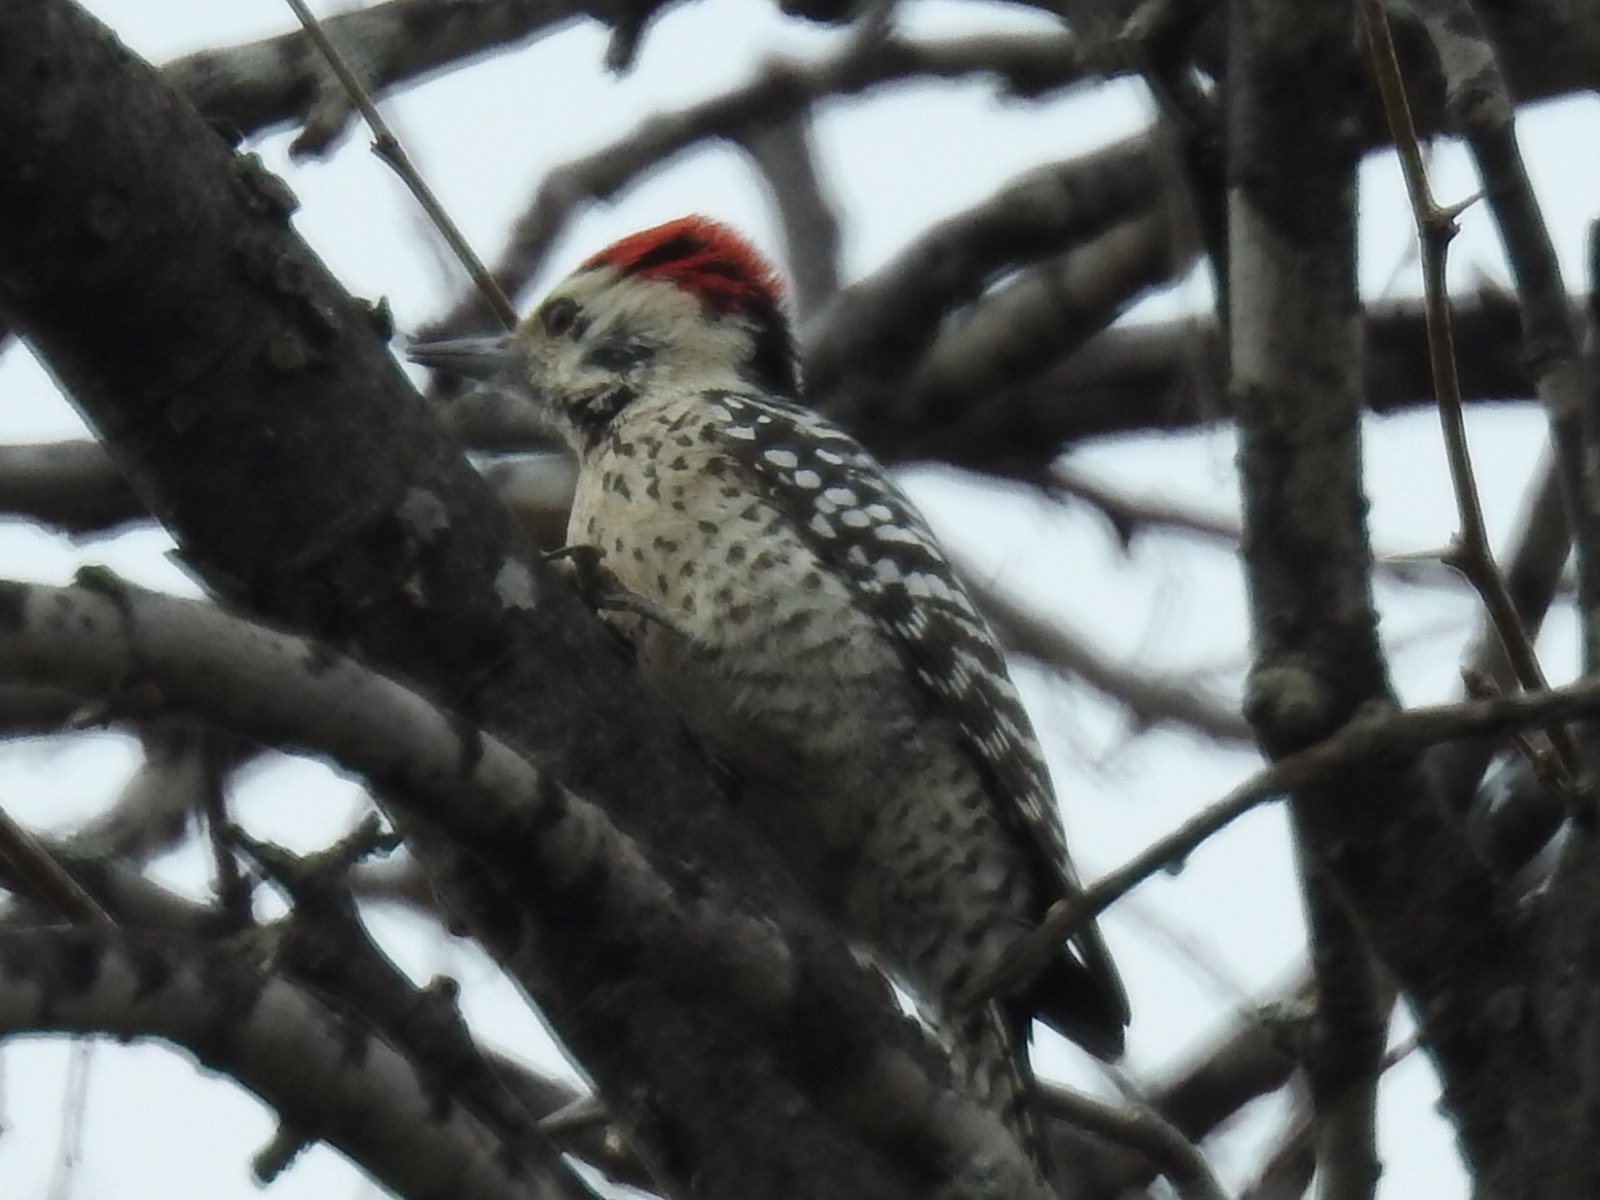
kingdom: Animalia
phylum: Chordata
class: Aves
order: Piciformes
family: Picidae
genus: Dryobates
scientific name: Dryobates scalaris
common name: Ladder-backed woodpecker
